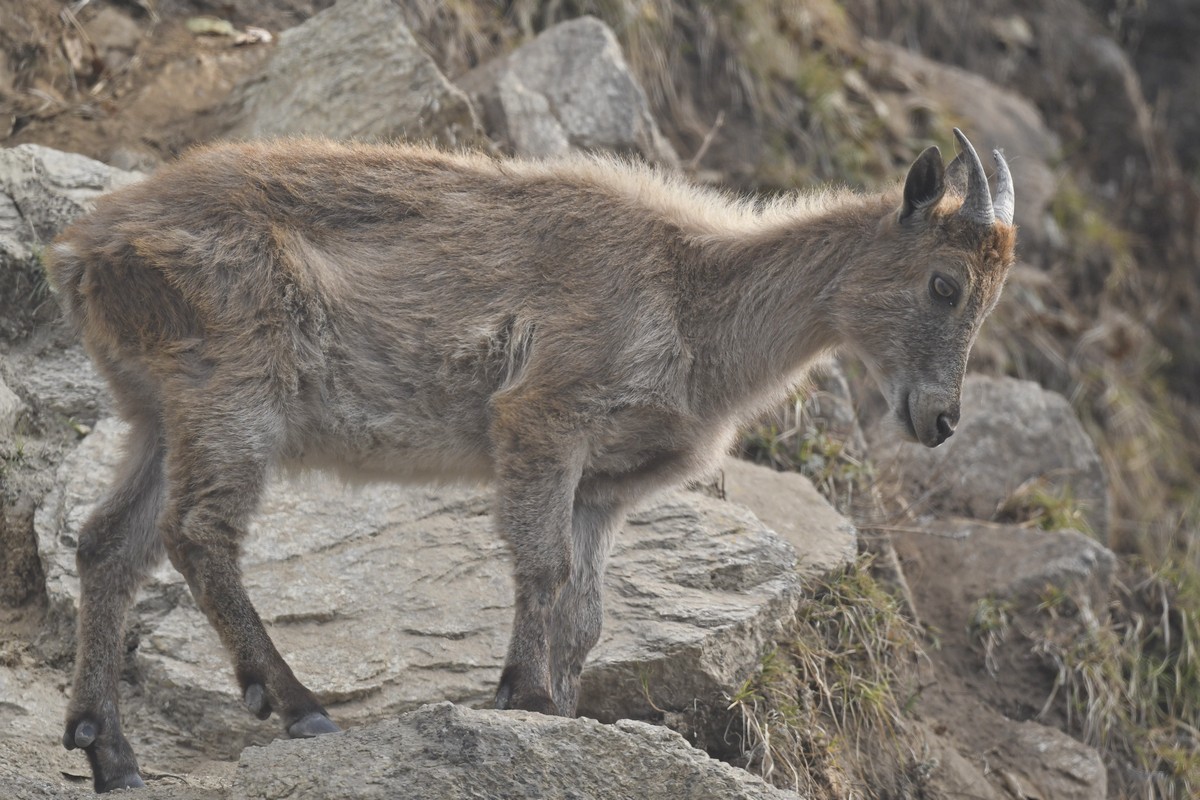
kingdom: Animalia
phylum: Chordata
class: Mammalia
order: Artiodactyla
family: Bovidae
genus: Hemitragus
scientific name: Hemitragus jemlahicus
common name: Himalayan tahr
